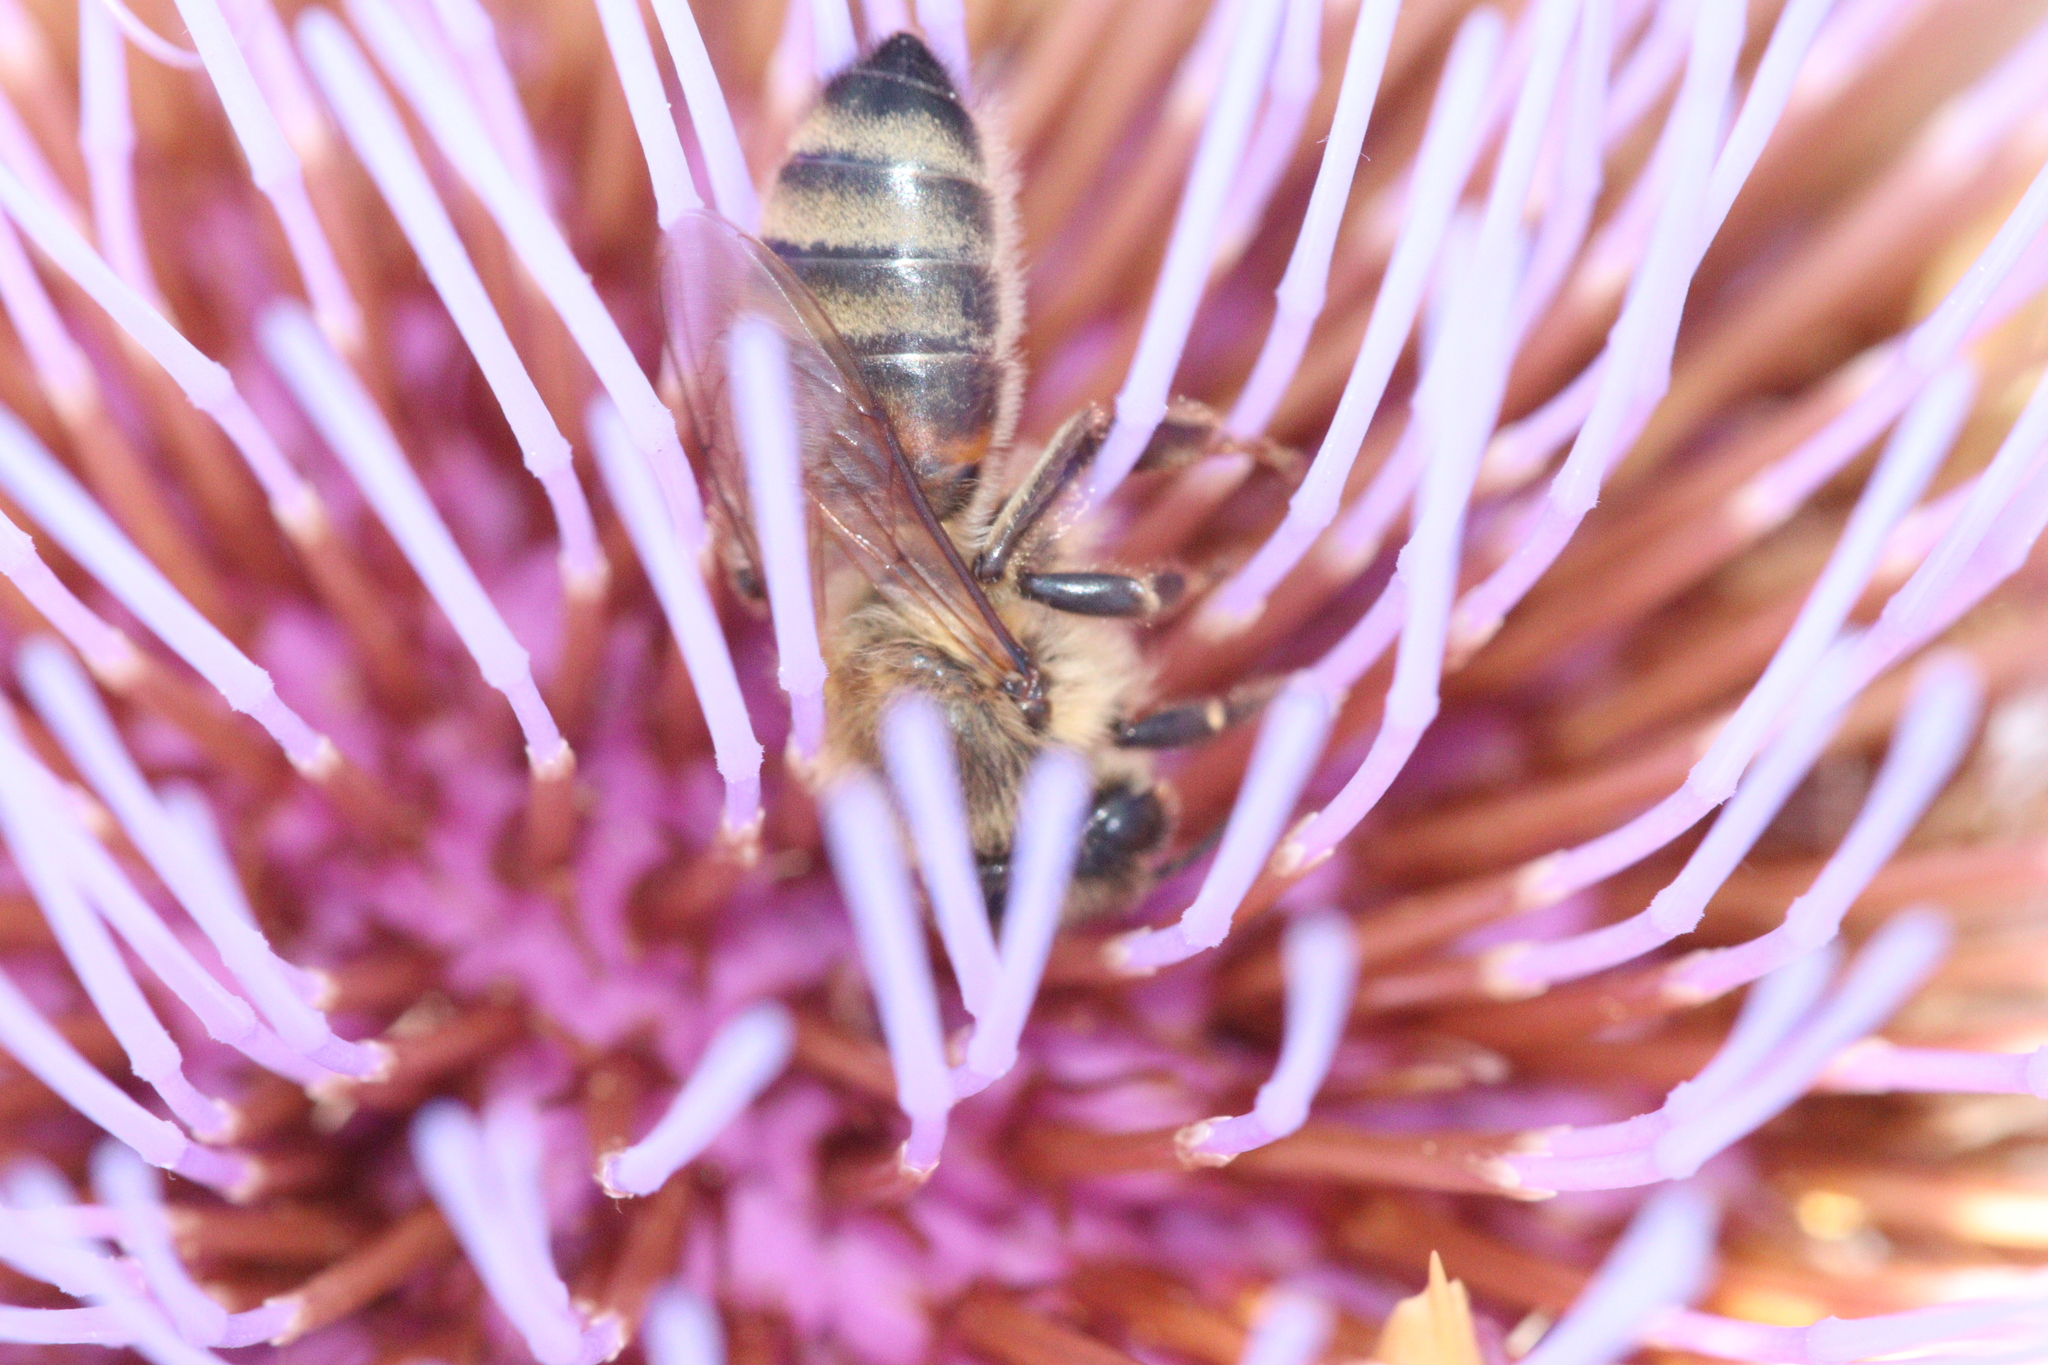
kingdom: Animalia
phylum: Arthropoda
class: Insecta
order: Hymenoptera
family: Apidae
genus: Apis
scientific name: Apis mellifera
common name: Honey bee
